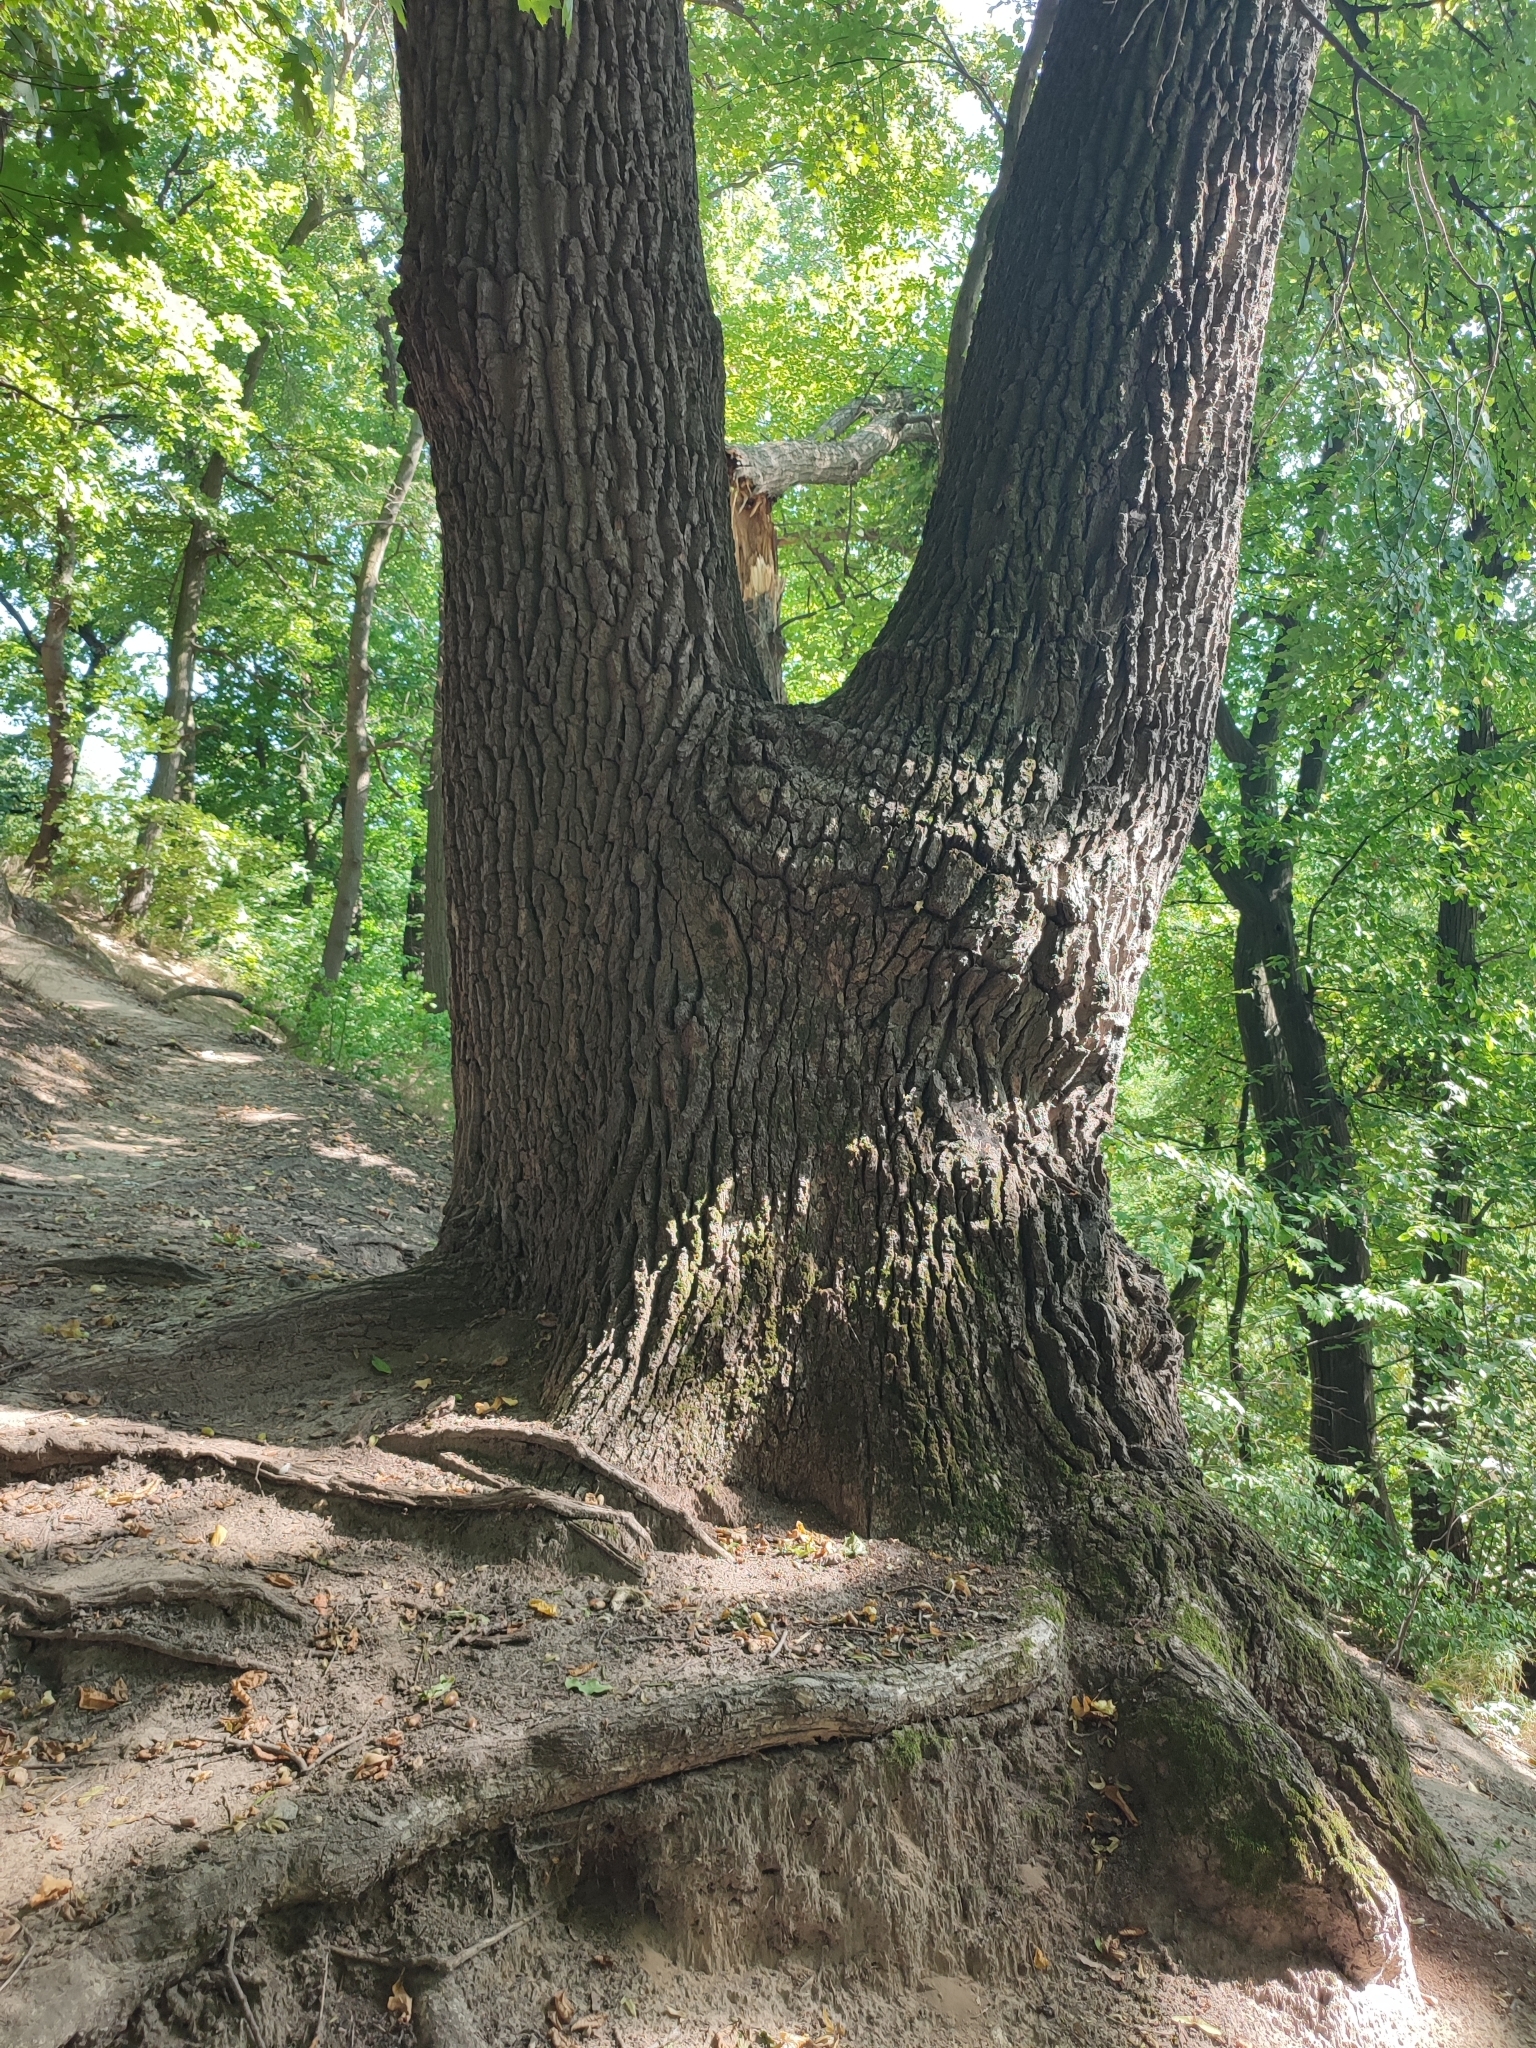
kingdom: Plantae
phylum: Tracheophyta
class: Magnoliopsida
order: Fagales
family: Fagaceae
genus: Quercus
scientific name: Quercus robur
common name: Pedunculate oak
